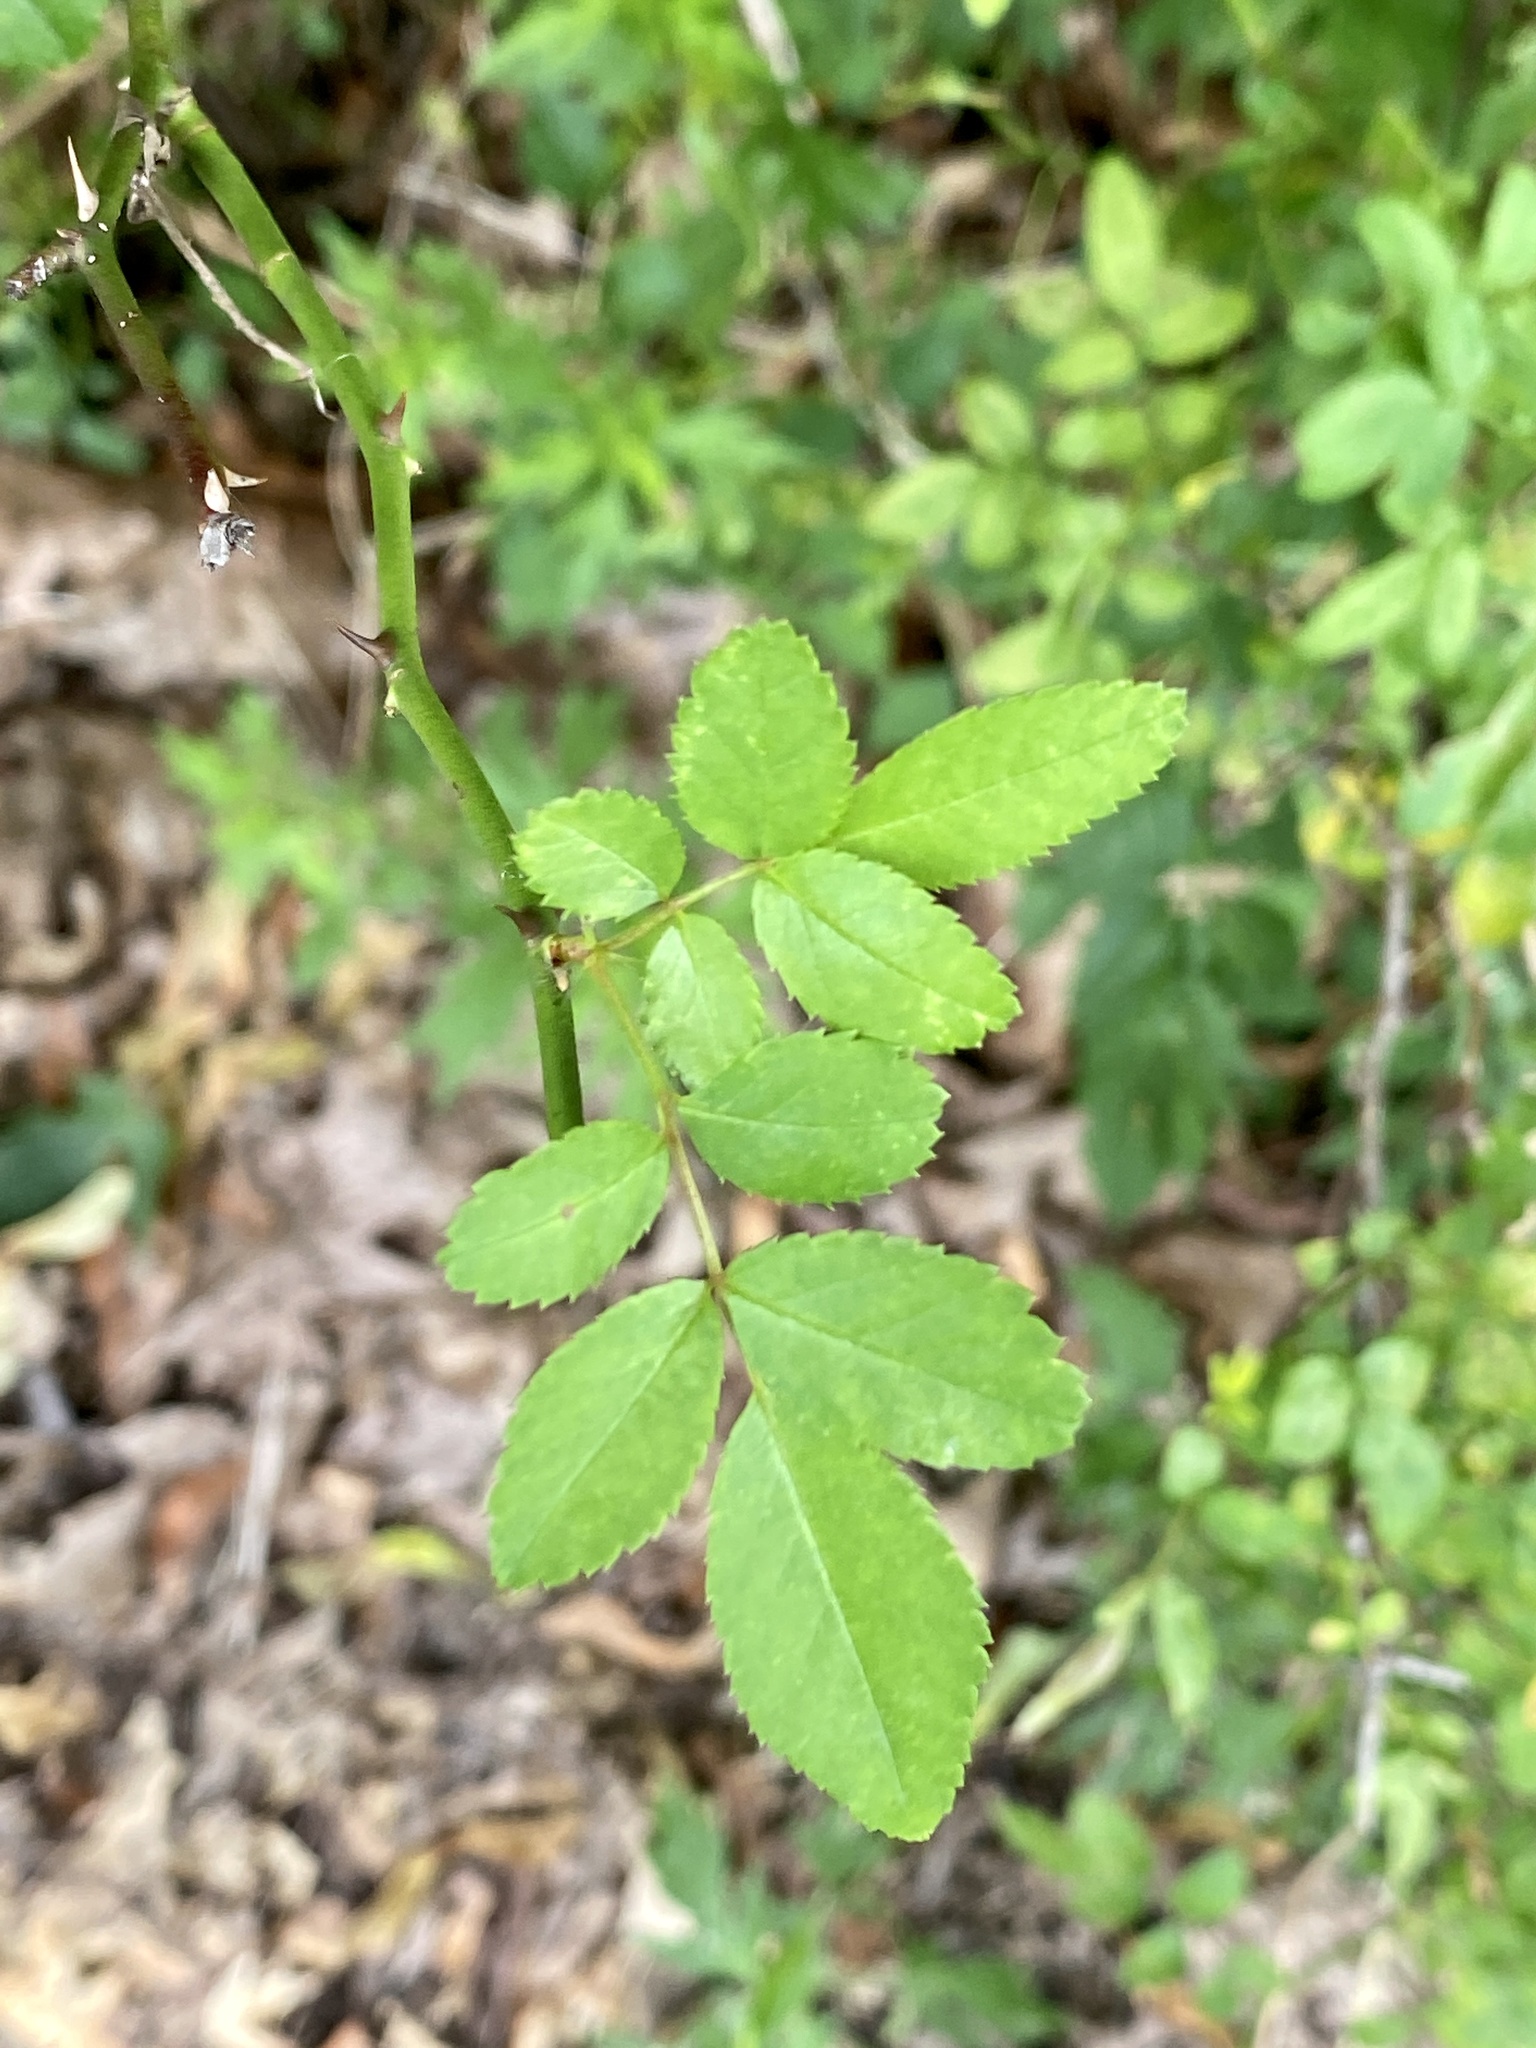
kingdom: Plantae
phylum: Tracheophyta
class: Magnoliopsida
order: Rosales
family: Rosaceae
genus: Rosa
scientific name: Rosa multiflora
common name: Multiflora rose
